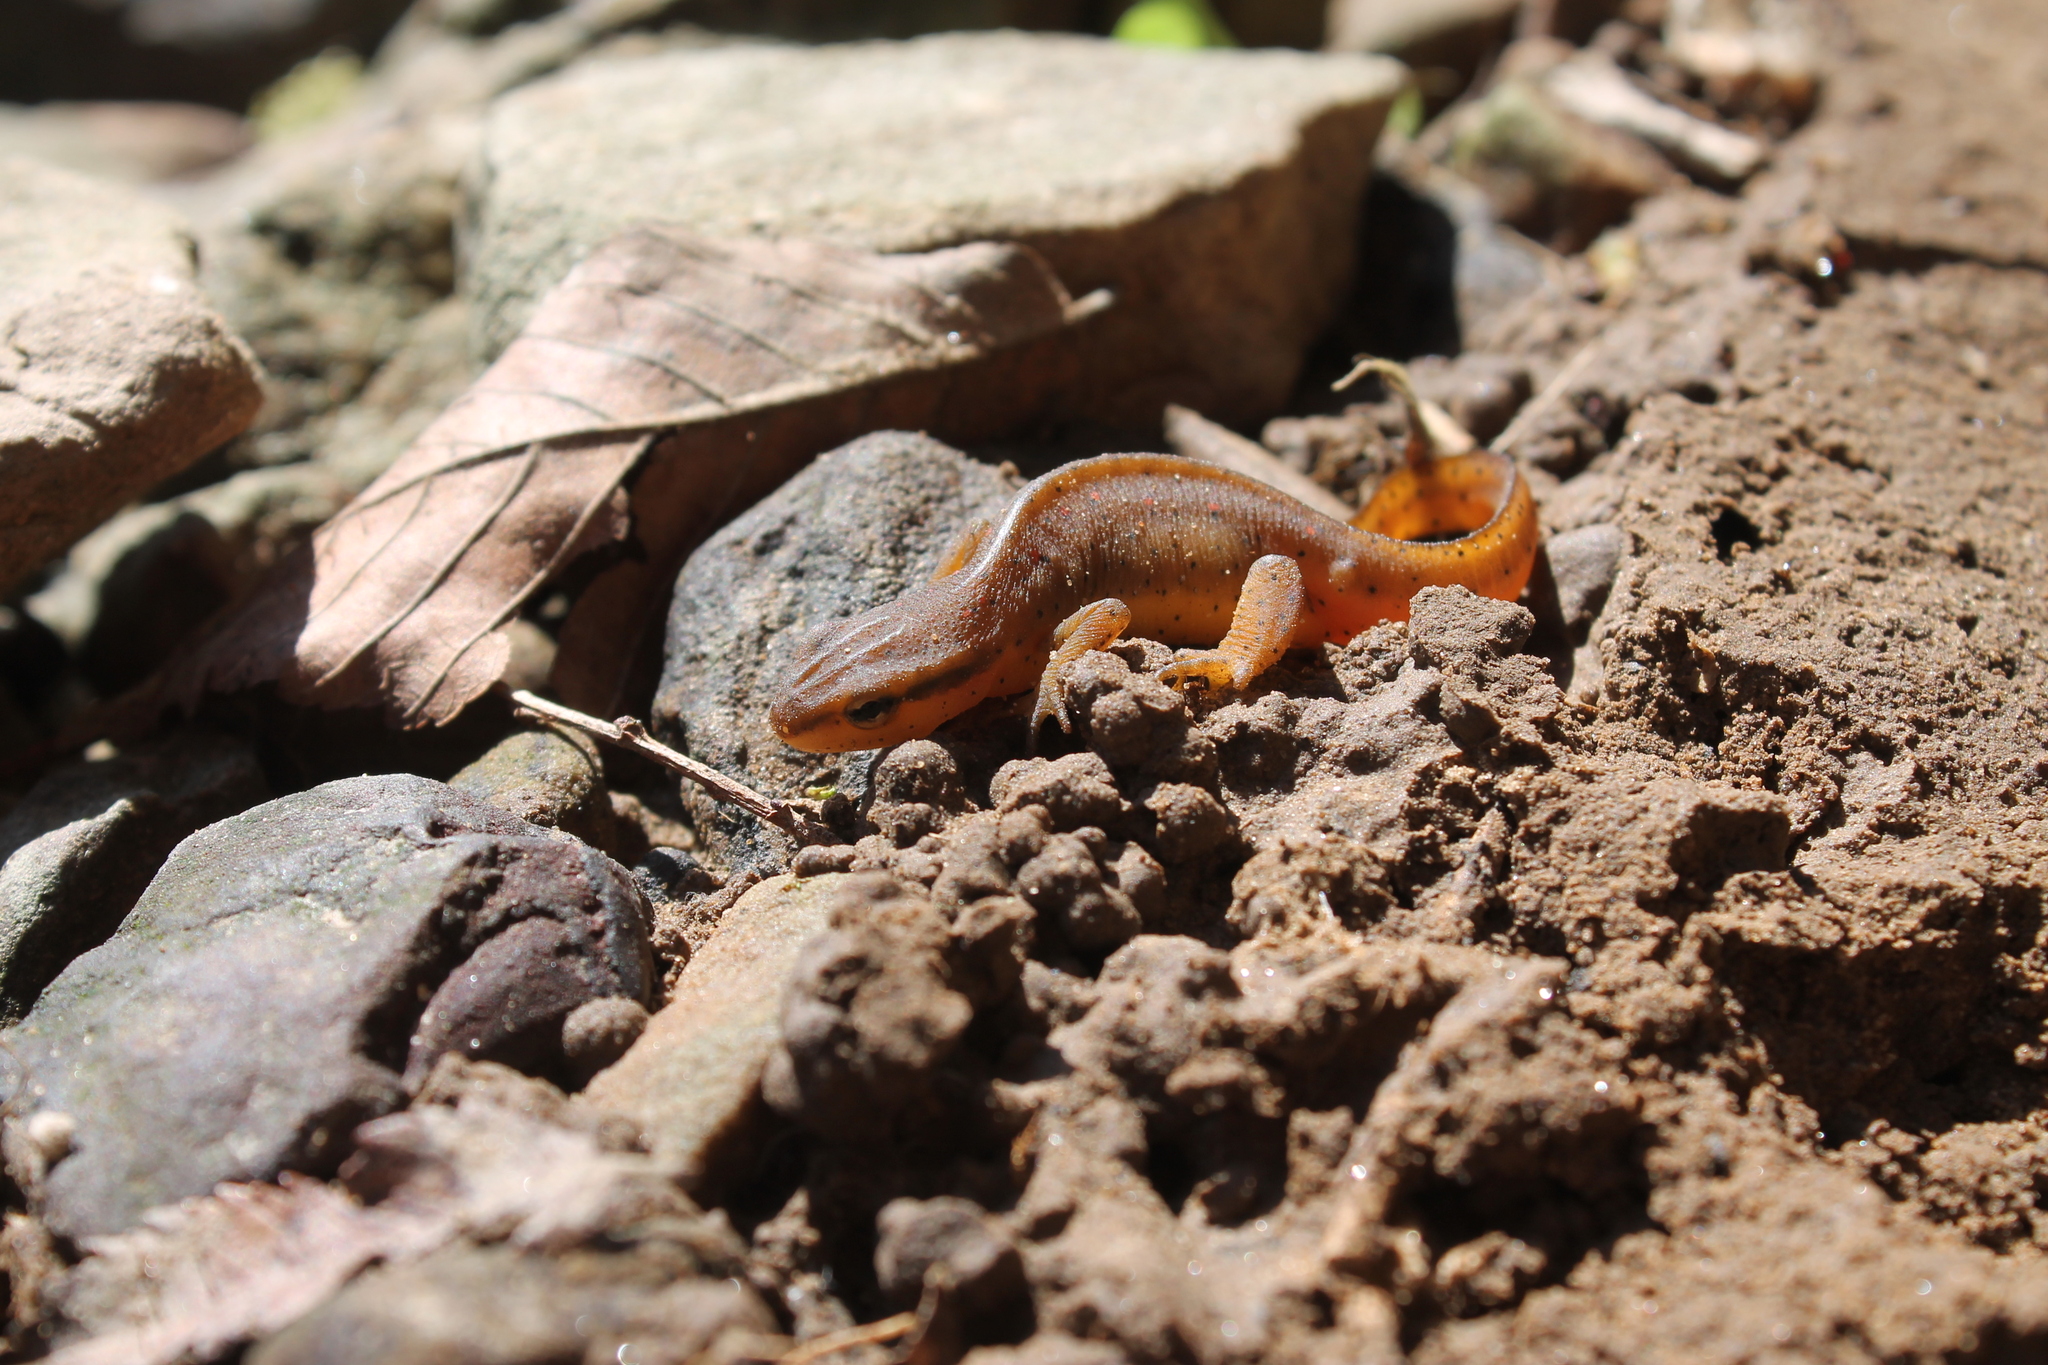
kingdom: Animalia
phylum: Chordata
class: Amphibia
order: Caudata
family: Salamandridae
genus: Notophthalmus
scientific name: Notophthalmus viridescens
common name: Eastern newt
